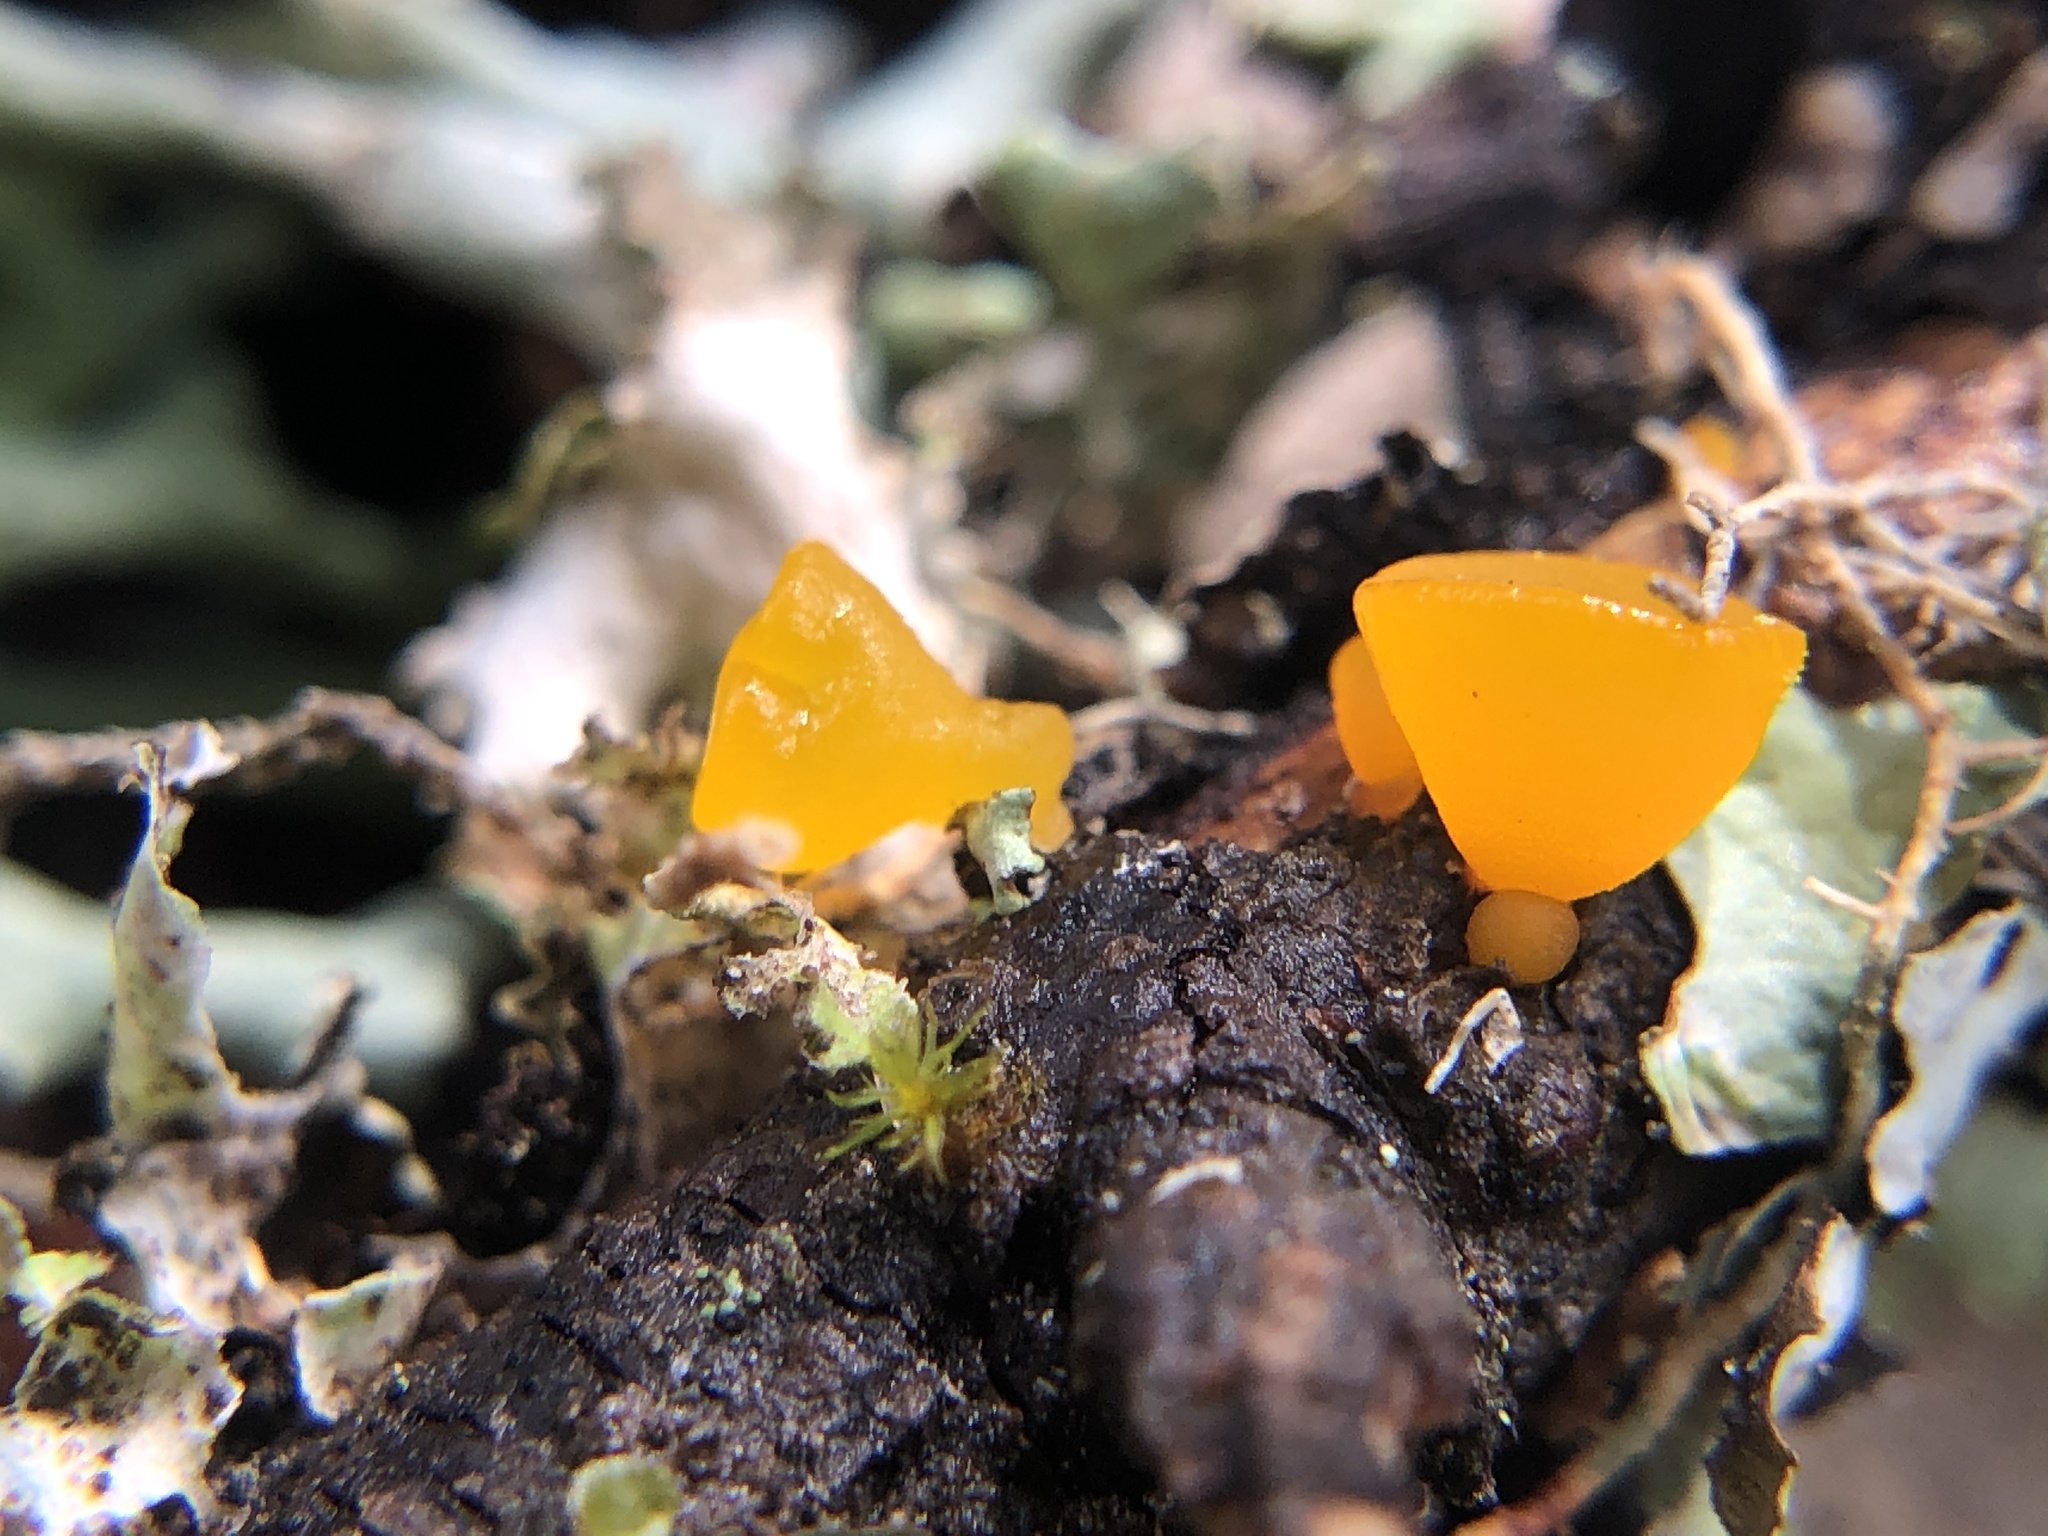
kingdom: Fungi
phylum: Basidiomycota
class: Dacrymycetes
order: Dacrymycetales
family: Dacrymycetaceae
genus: Guepiniopsis
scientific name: Guepiniopsis alpina
